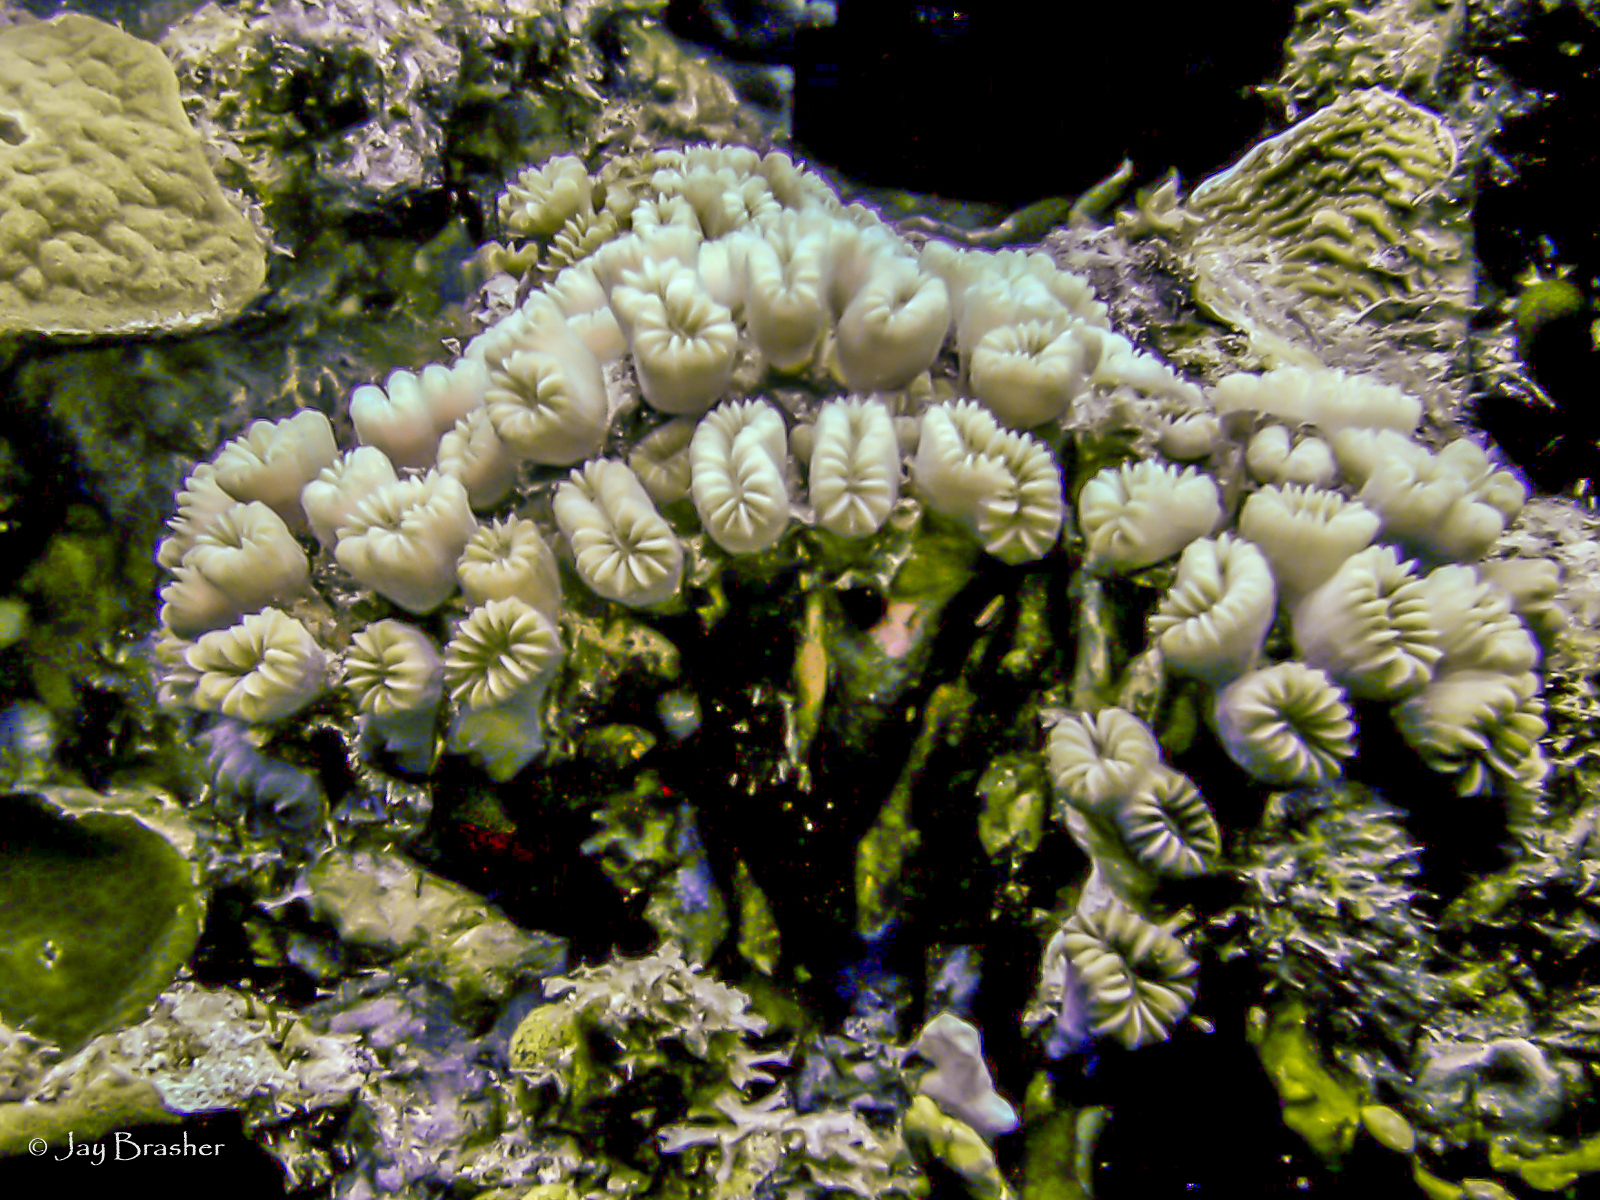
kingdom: Animalia
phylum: Cnidaria
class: Anthozoa
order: Scleractinia
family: Meandrinidae
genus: Eusmilia
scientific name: Eusmilia fastigiata
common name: Smooth flower coral
